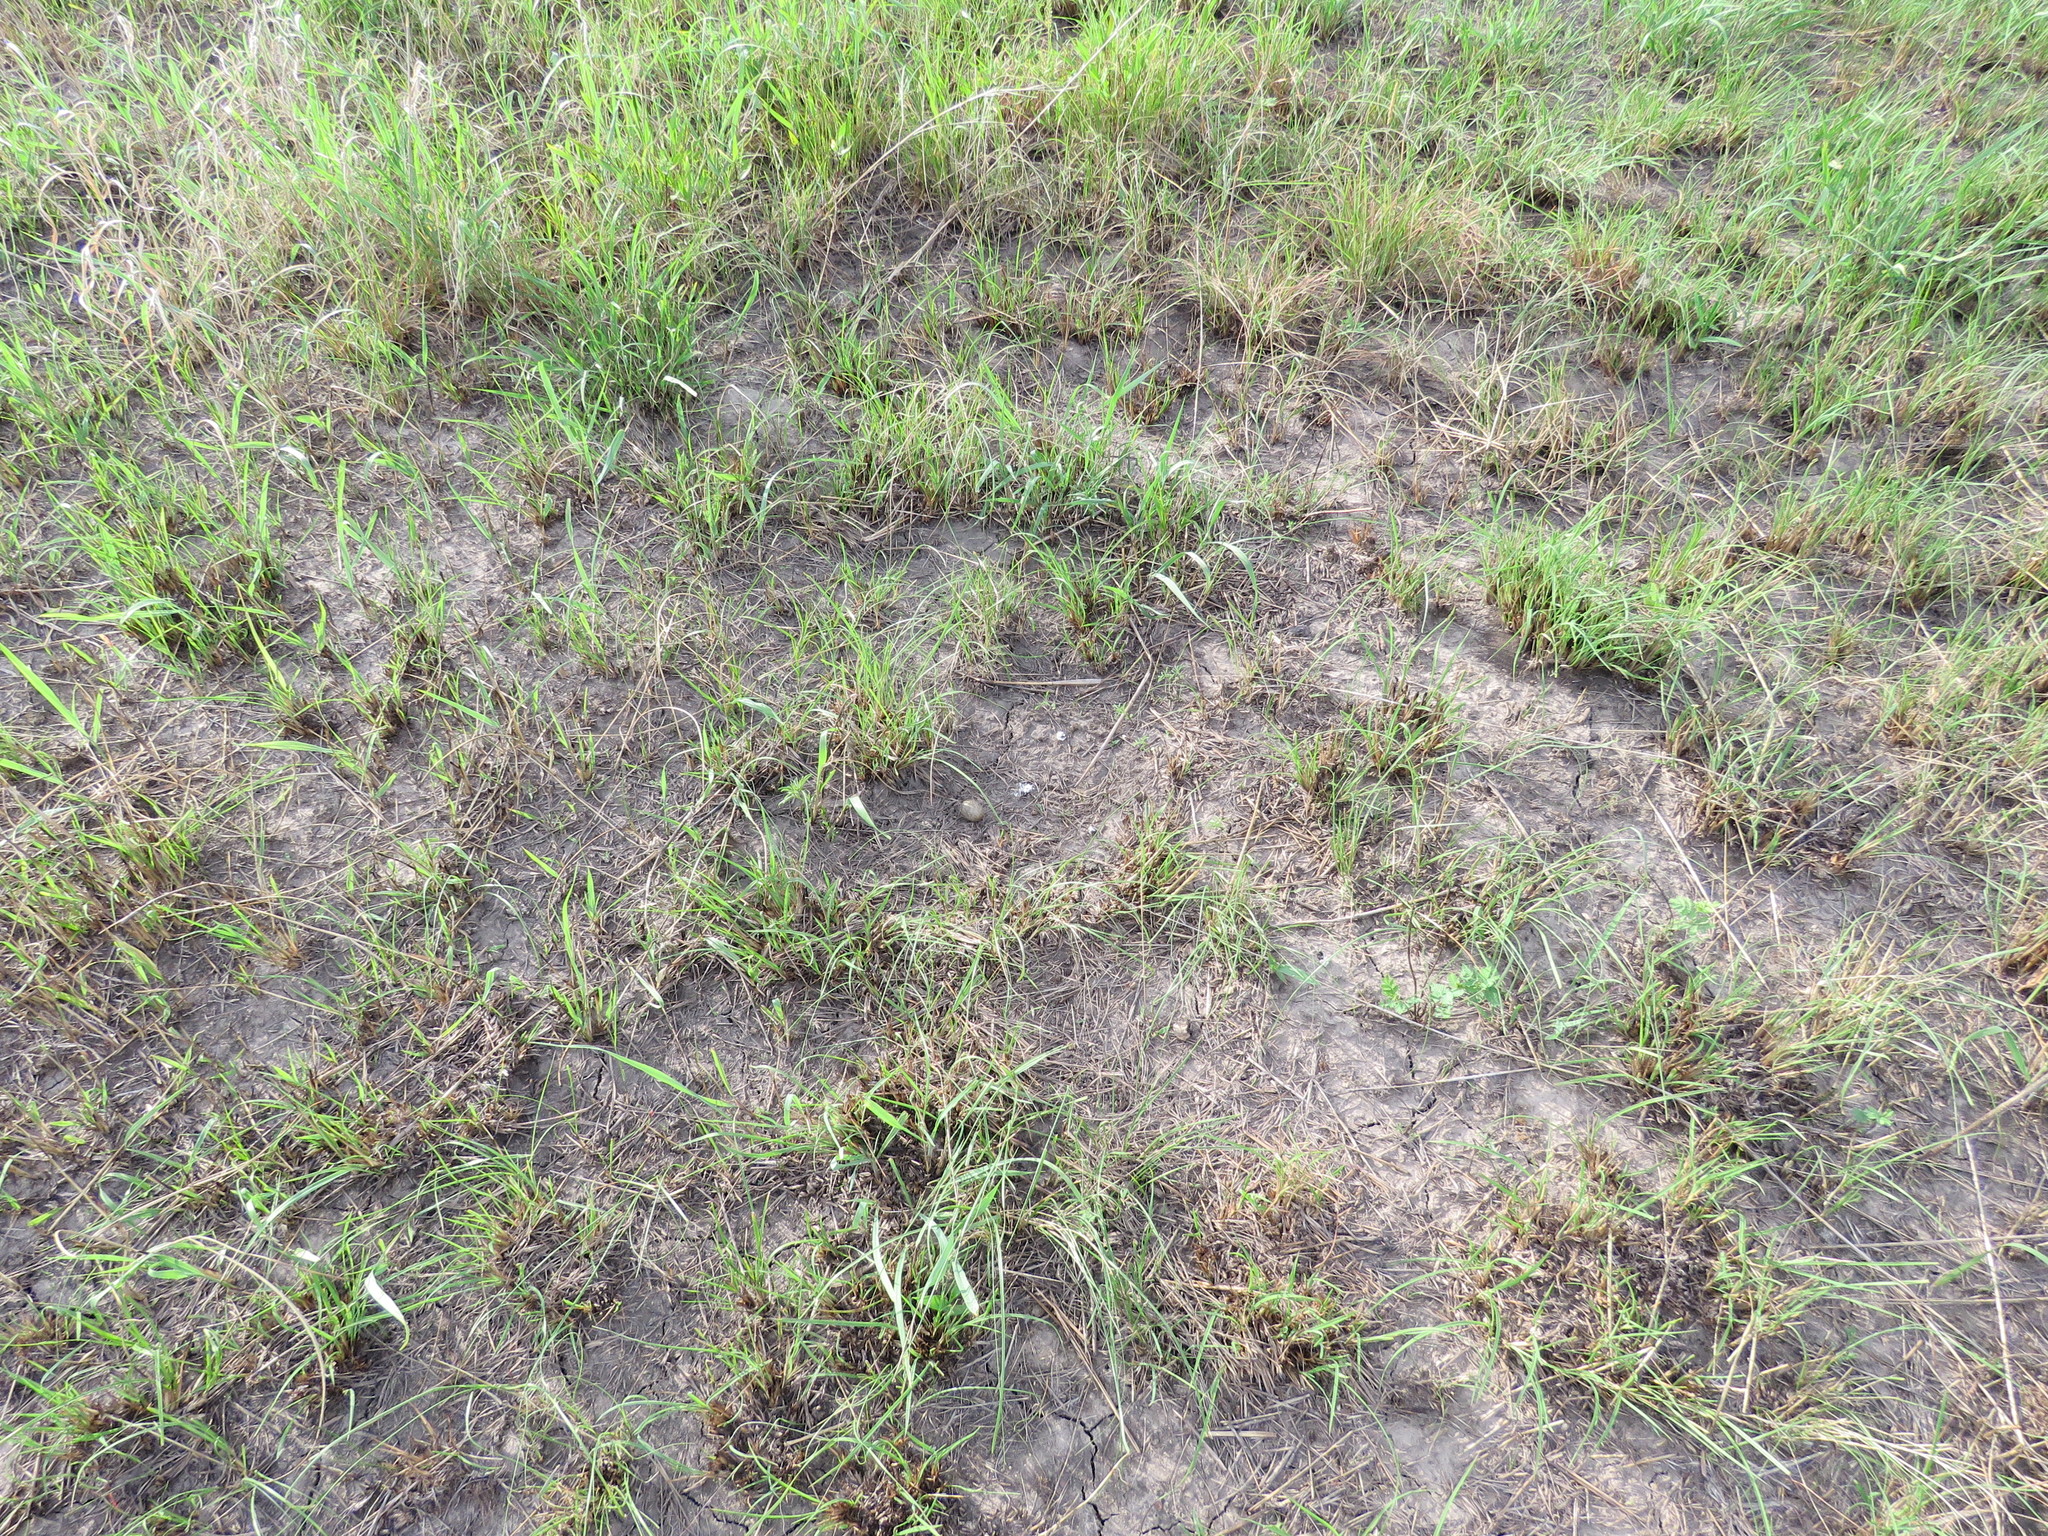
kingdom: Animalia
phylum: Chordata
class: Aves
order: Caprimulgiformes
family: Caprimulgidae
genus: Chordeiles
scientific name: Chordeiles minor
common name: Common nighthawk
